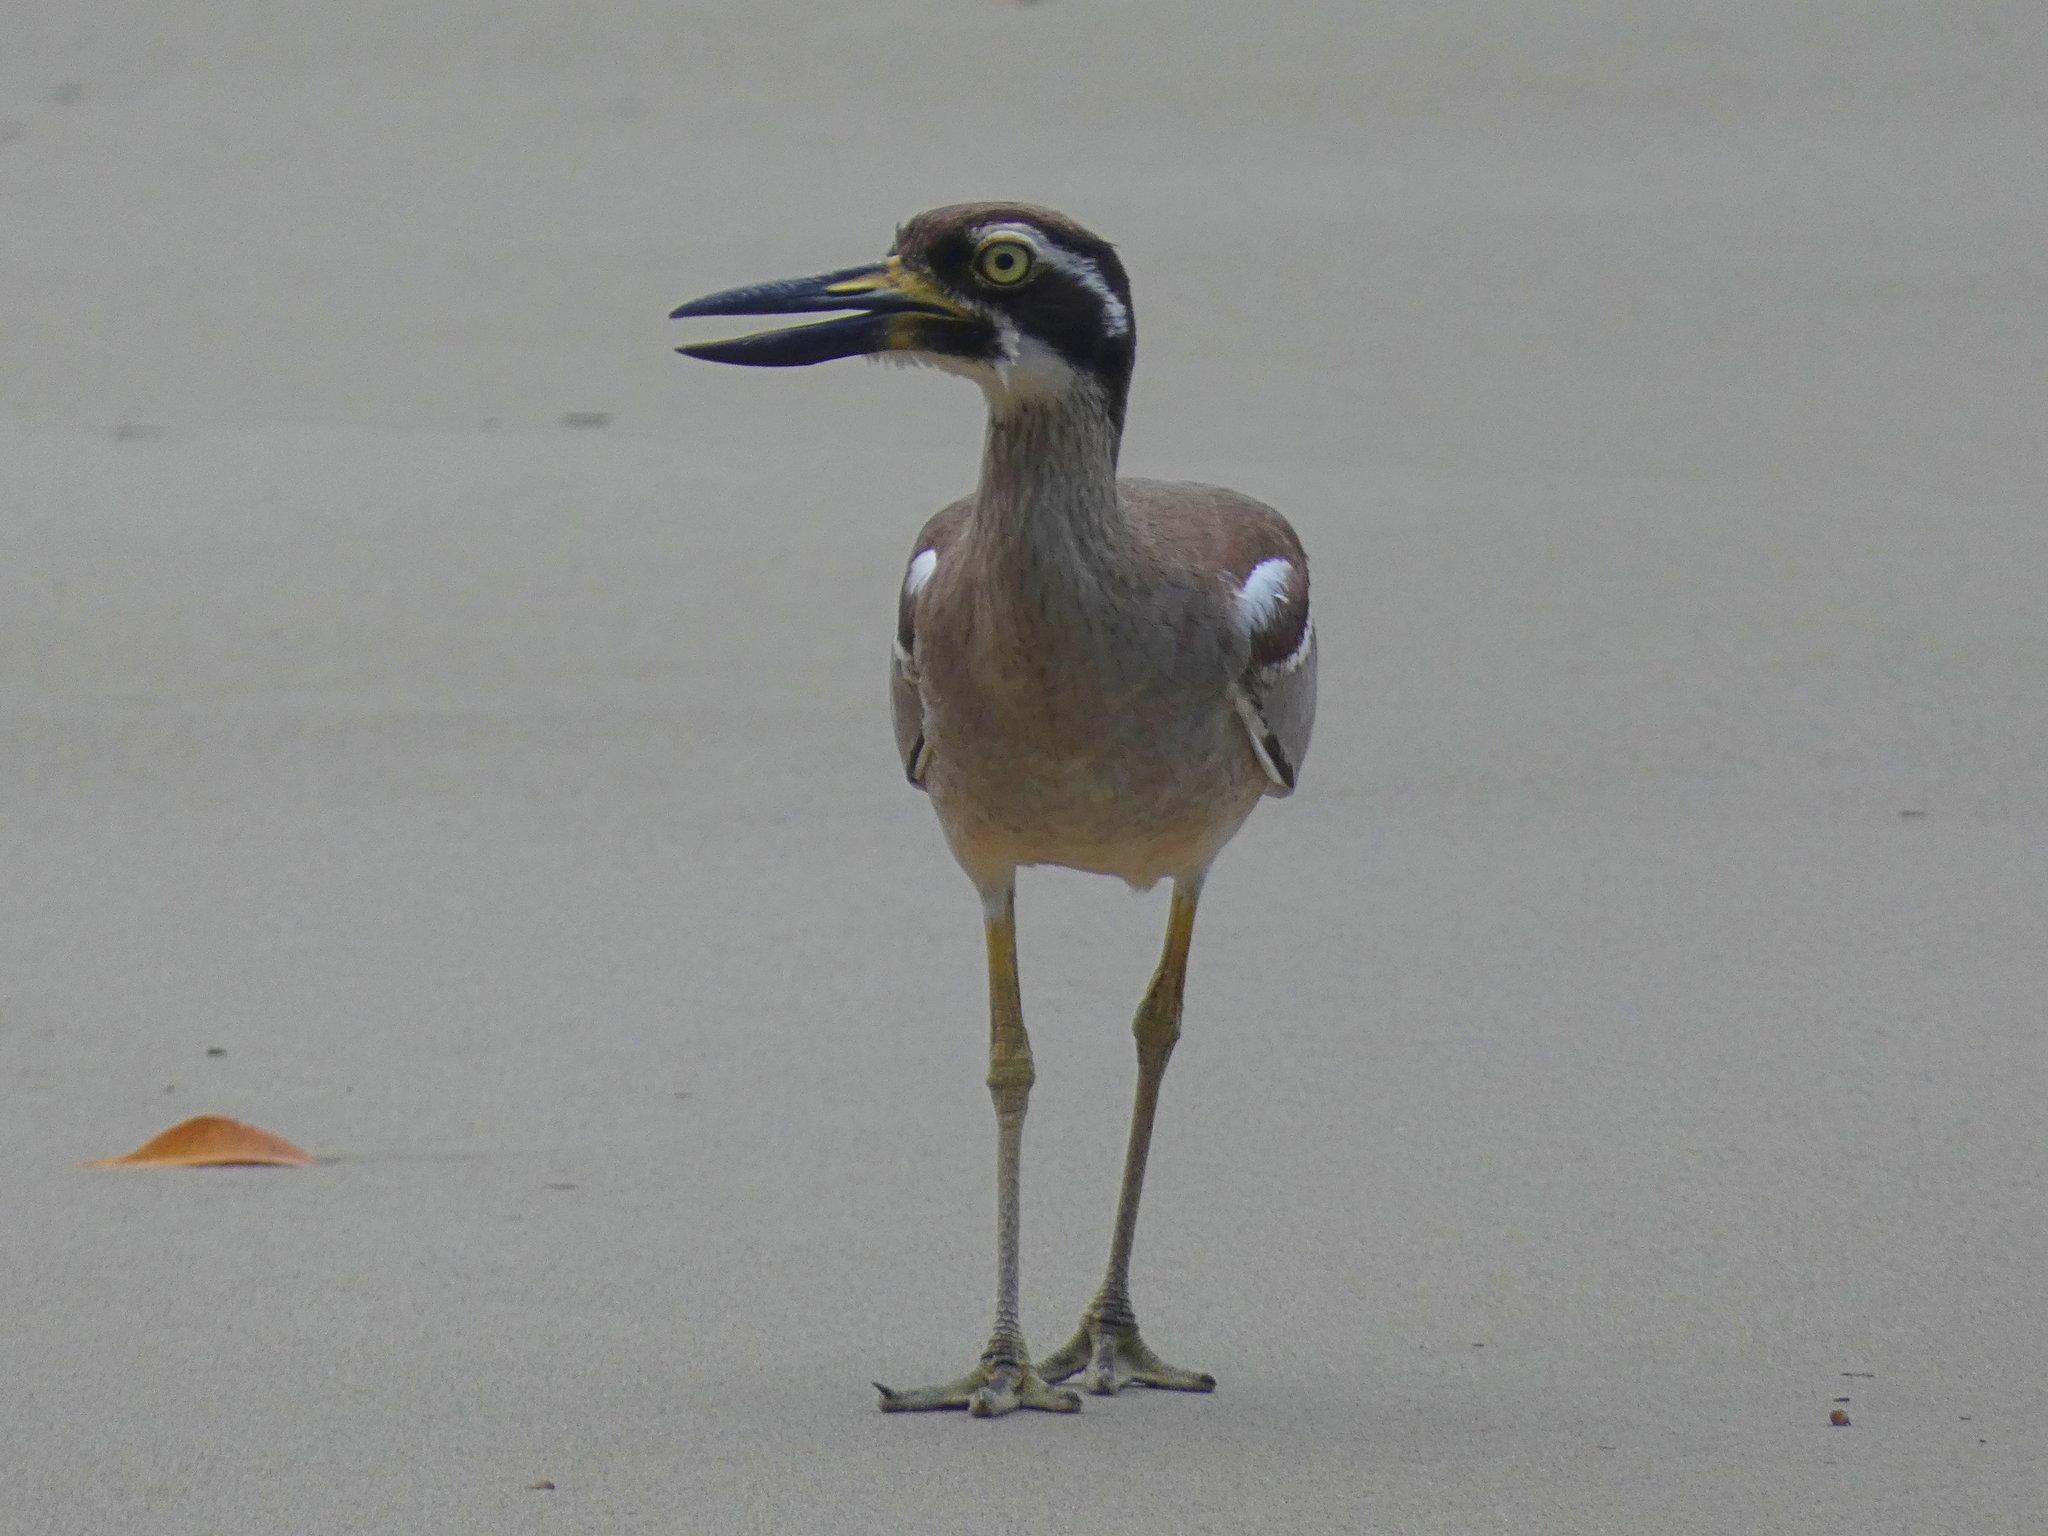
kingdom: Animalia
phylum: Chordata
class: Aves
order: Charadriiformes
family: Burhinidae
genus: Esacus
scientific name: Esacus magnirostris
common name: Beach stone-curlew
